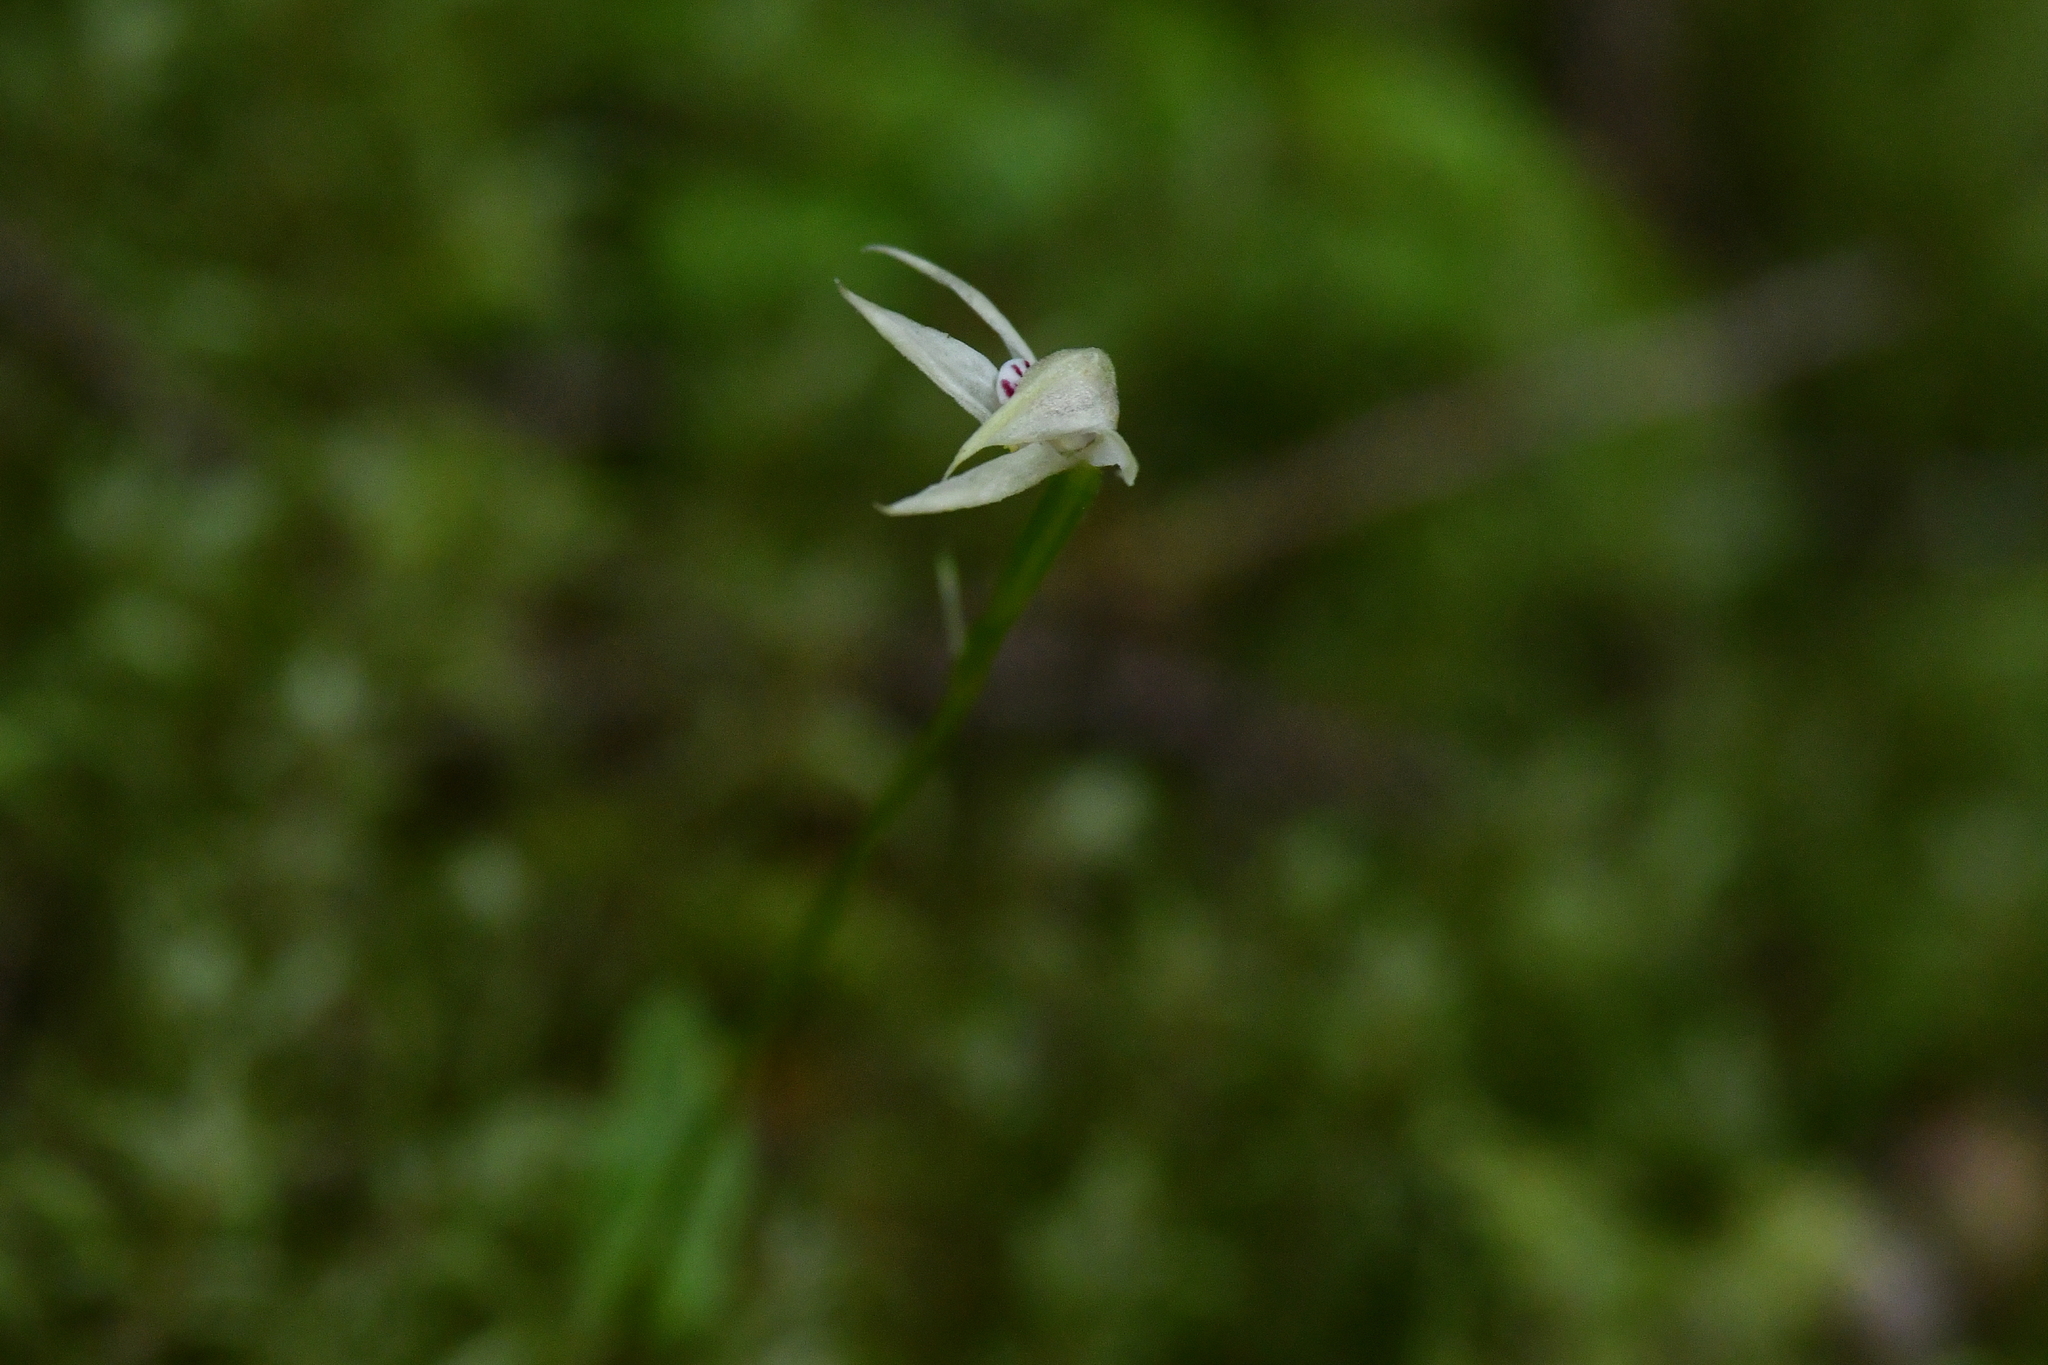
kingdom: Plantae
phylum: Tracheophyta
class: Liliopsida
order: Asparagales
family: Orchidaceae
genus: Adenochilus
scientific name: Adenochilus gracilis
